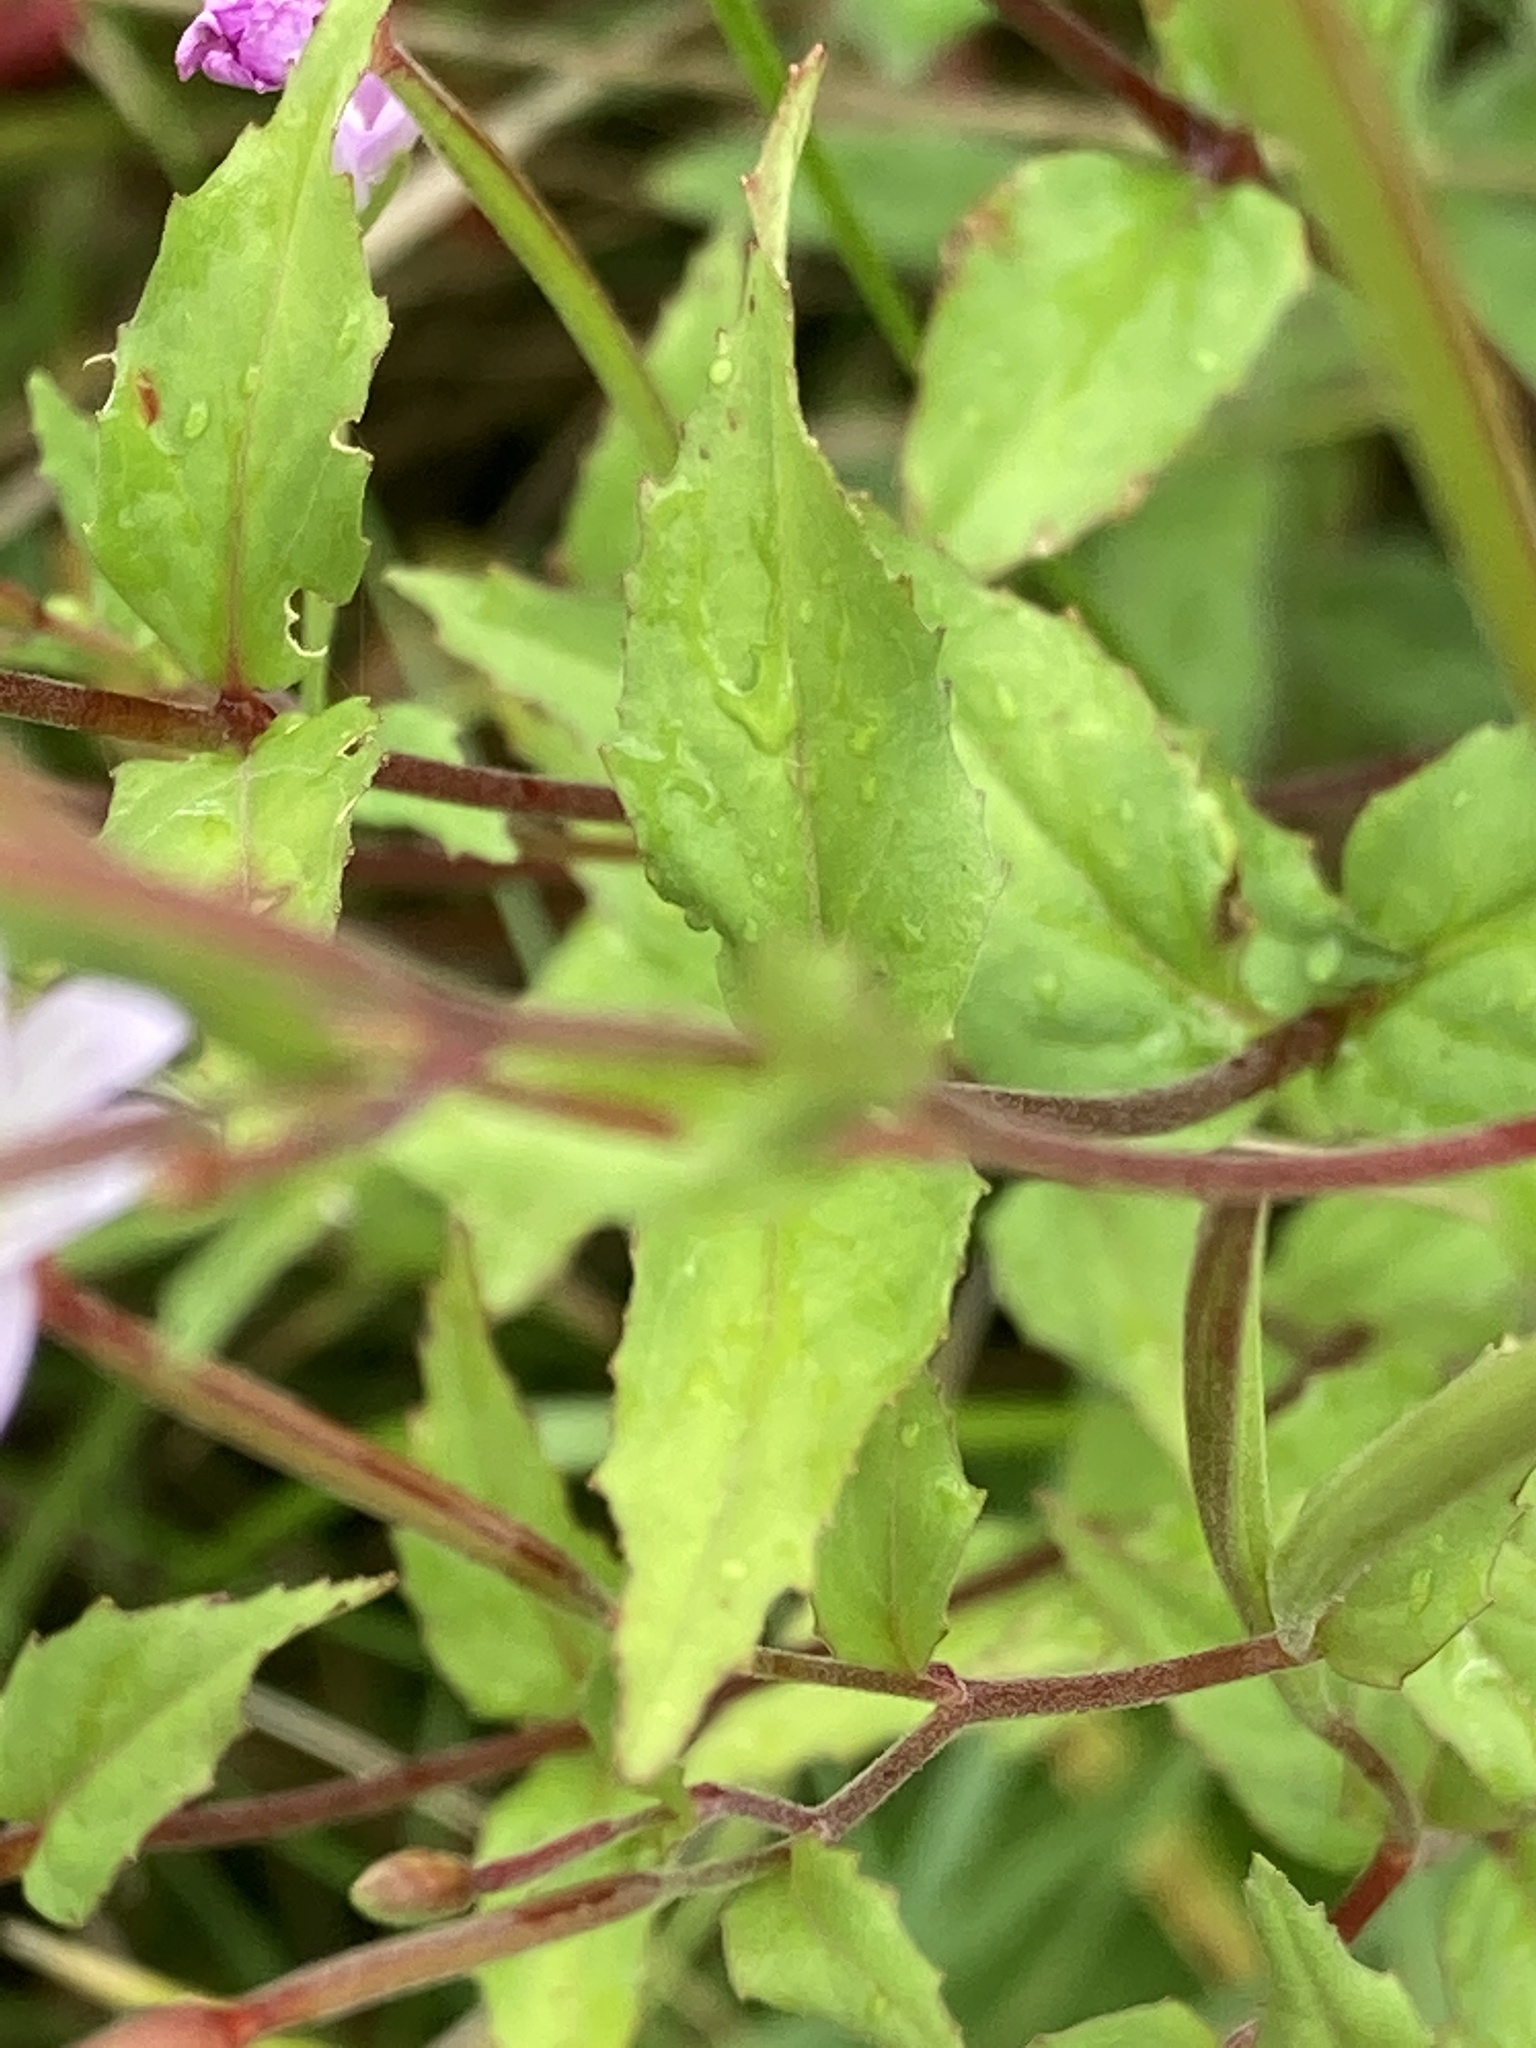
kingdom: Plantae
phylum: Tracheophyta
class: Magnoliopsida
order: Myrtales
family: Onagraceae
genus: Epilobium
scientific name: Epilobium montanum
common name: Broad-leaved willowherb
